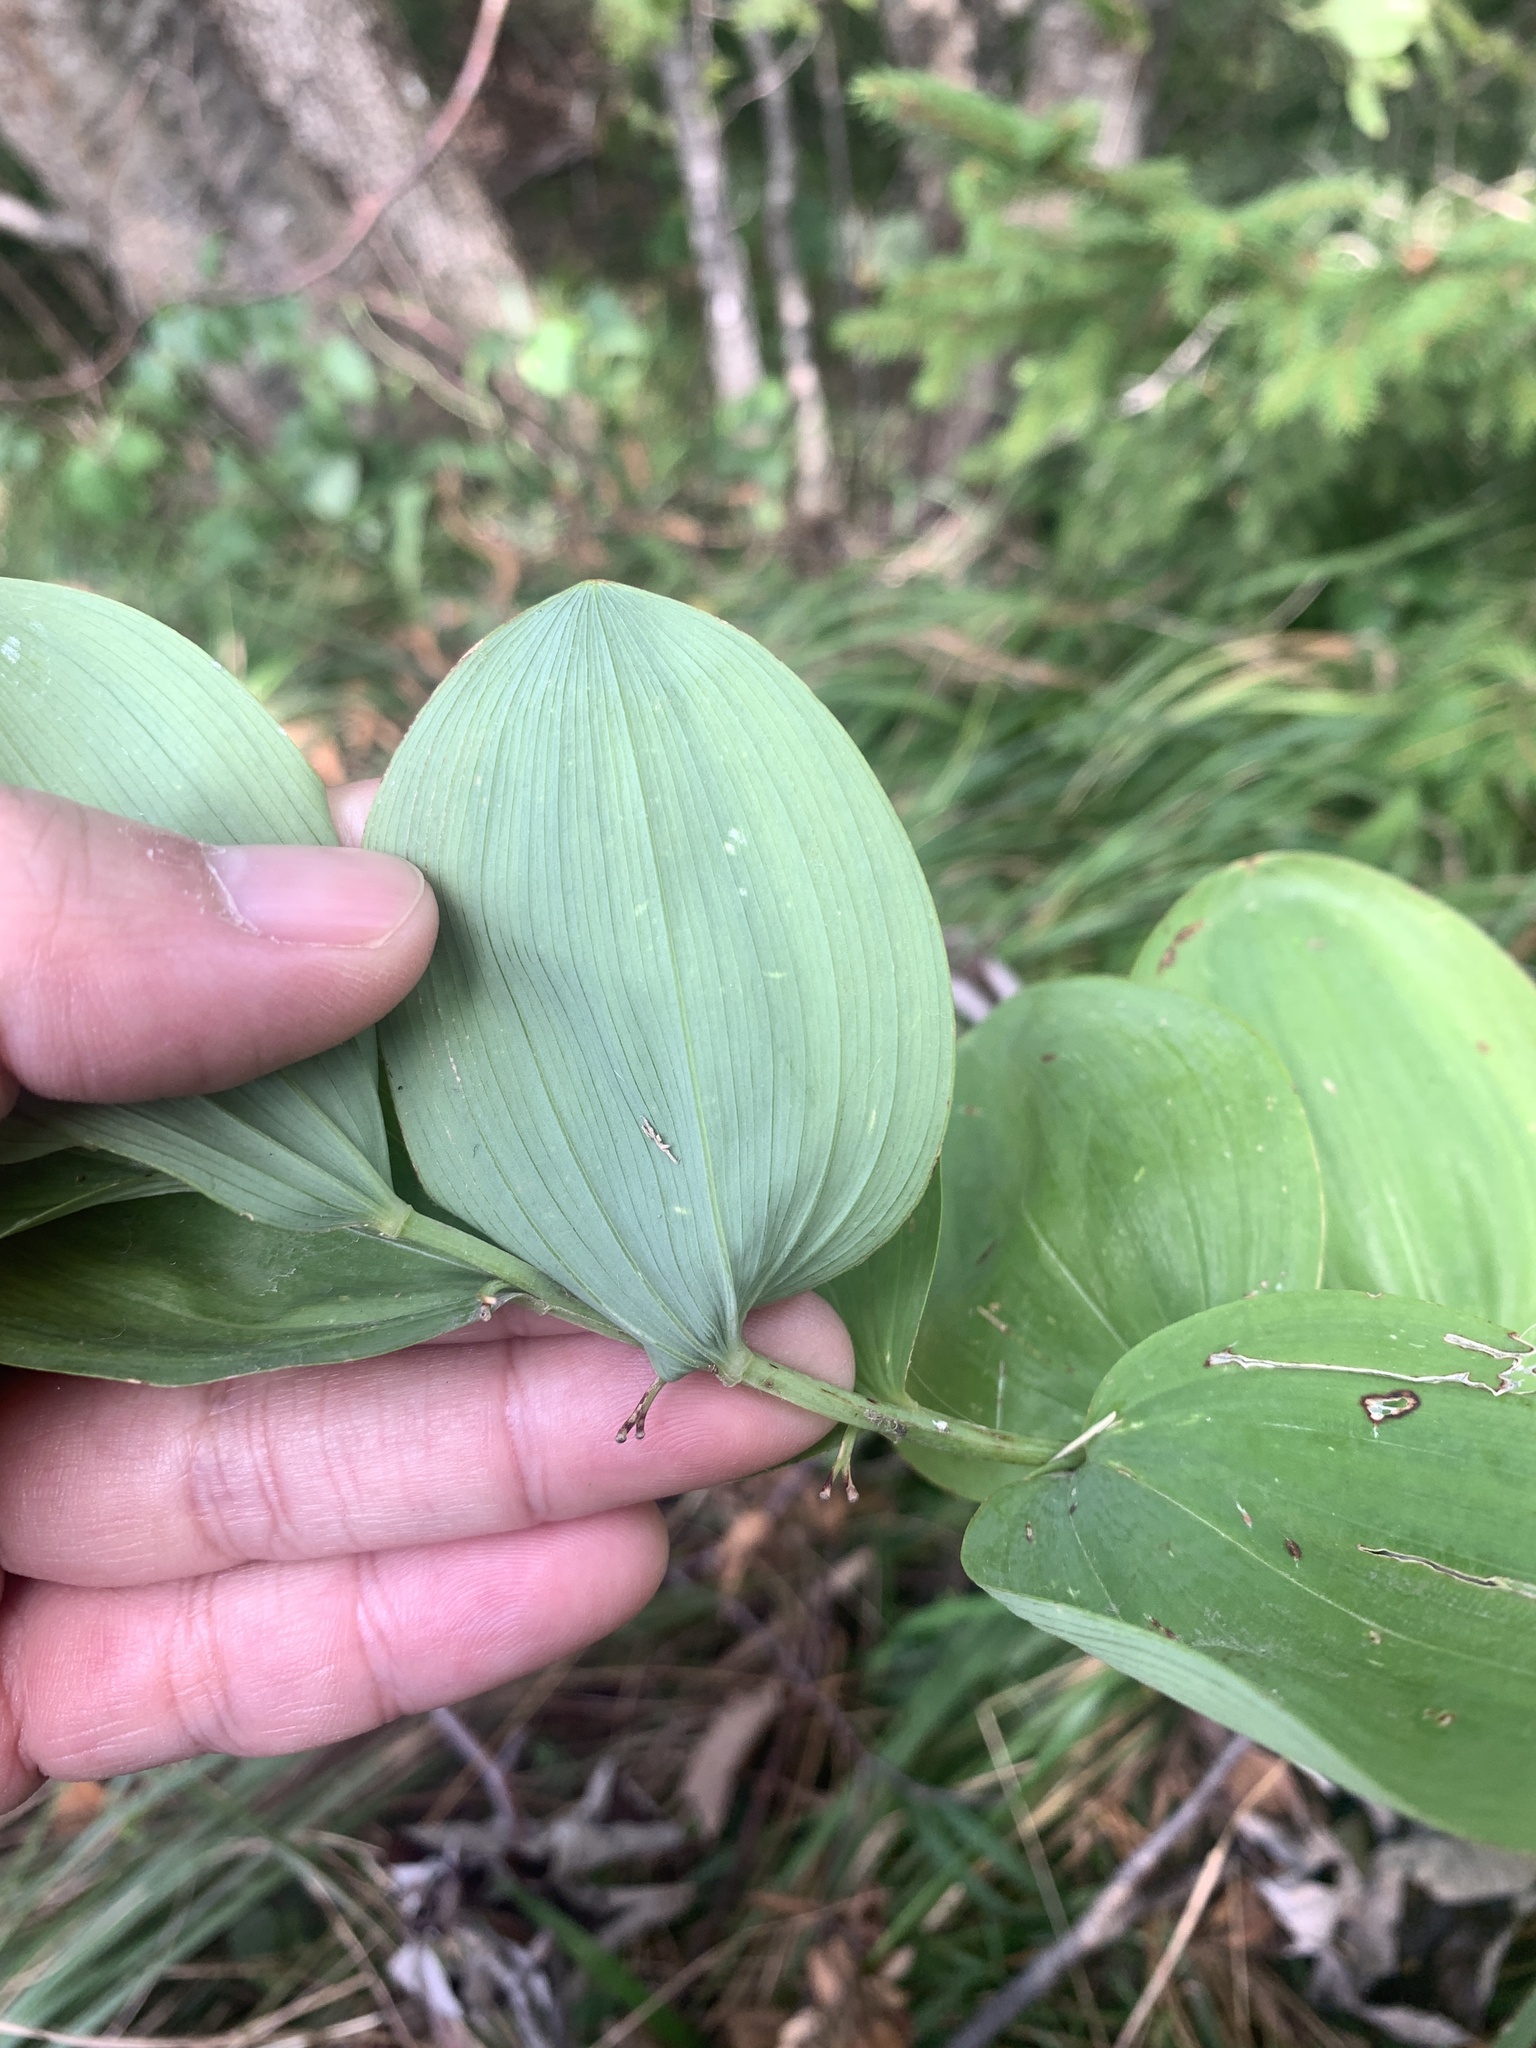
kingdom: Plantae
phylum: Tracheophyta
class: Liliopsida
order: Asparagales
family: Asparagaceae
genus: Polygonatum
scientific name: Polygonatum odoratum
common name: Angular solomon's-seal
